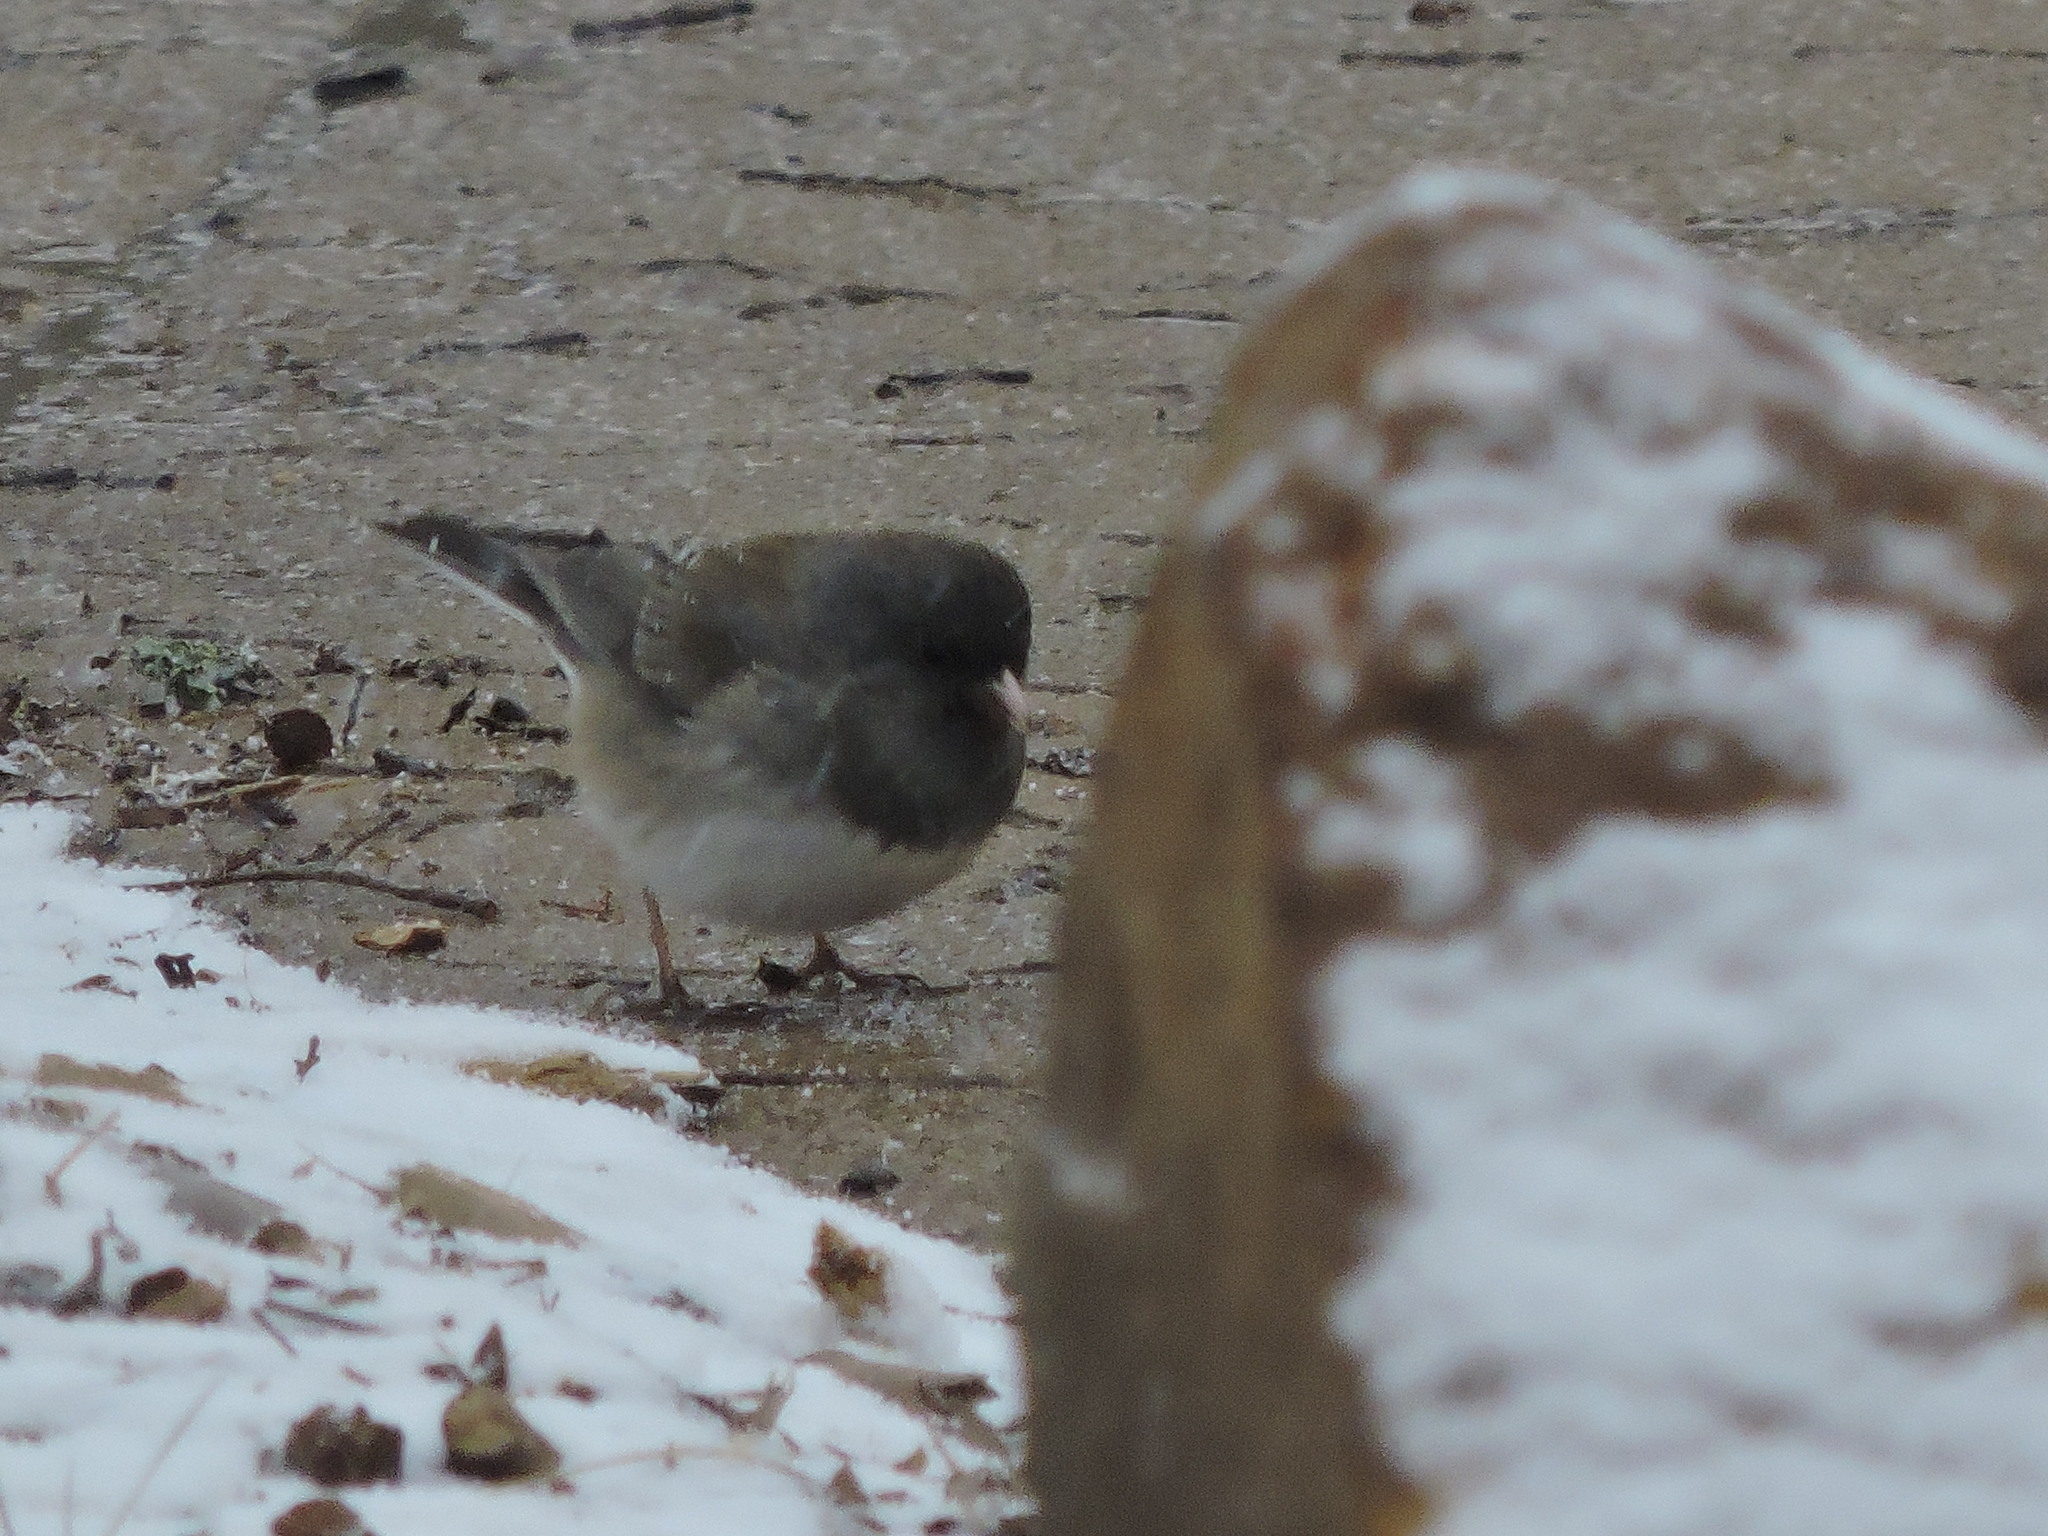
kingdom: Animalia
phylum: Chordata
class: Aves
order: Passeriformes
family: Passerellidae
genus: Junco
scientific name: Junco hyemalis
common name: Dark-eyed junco
